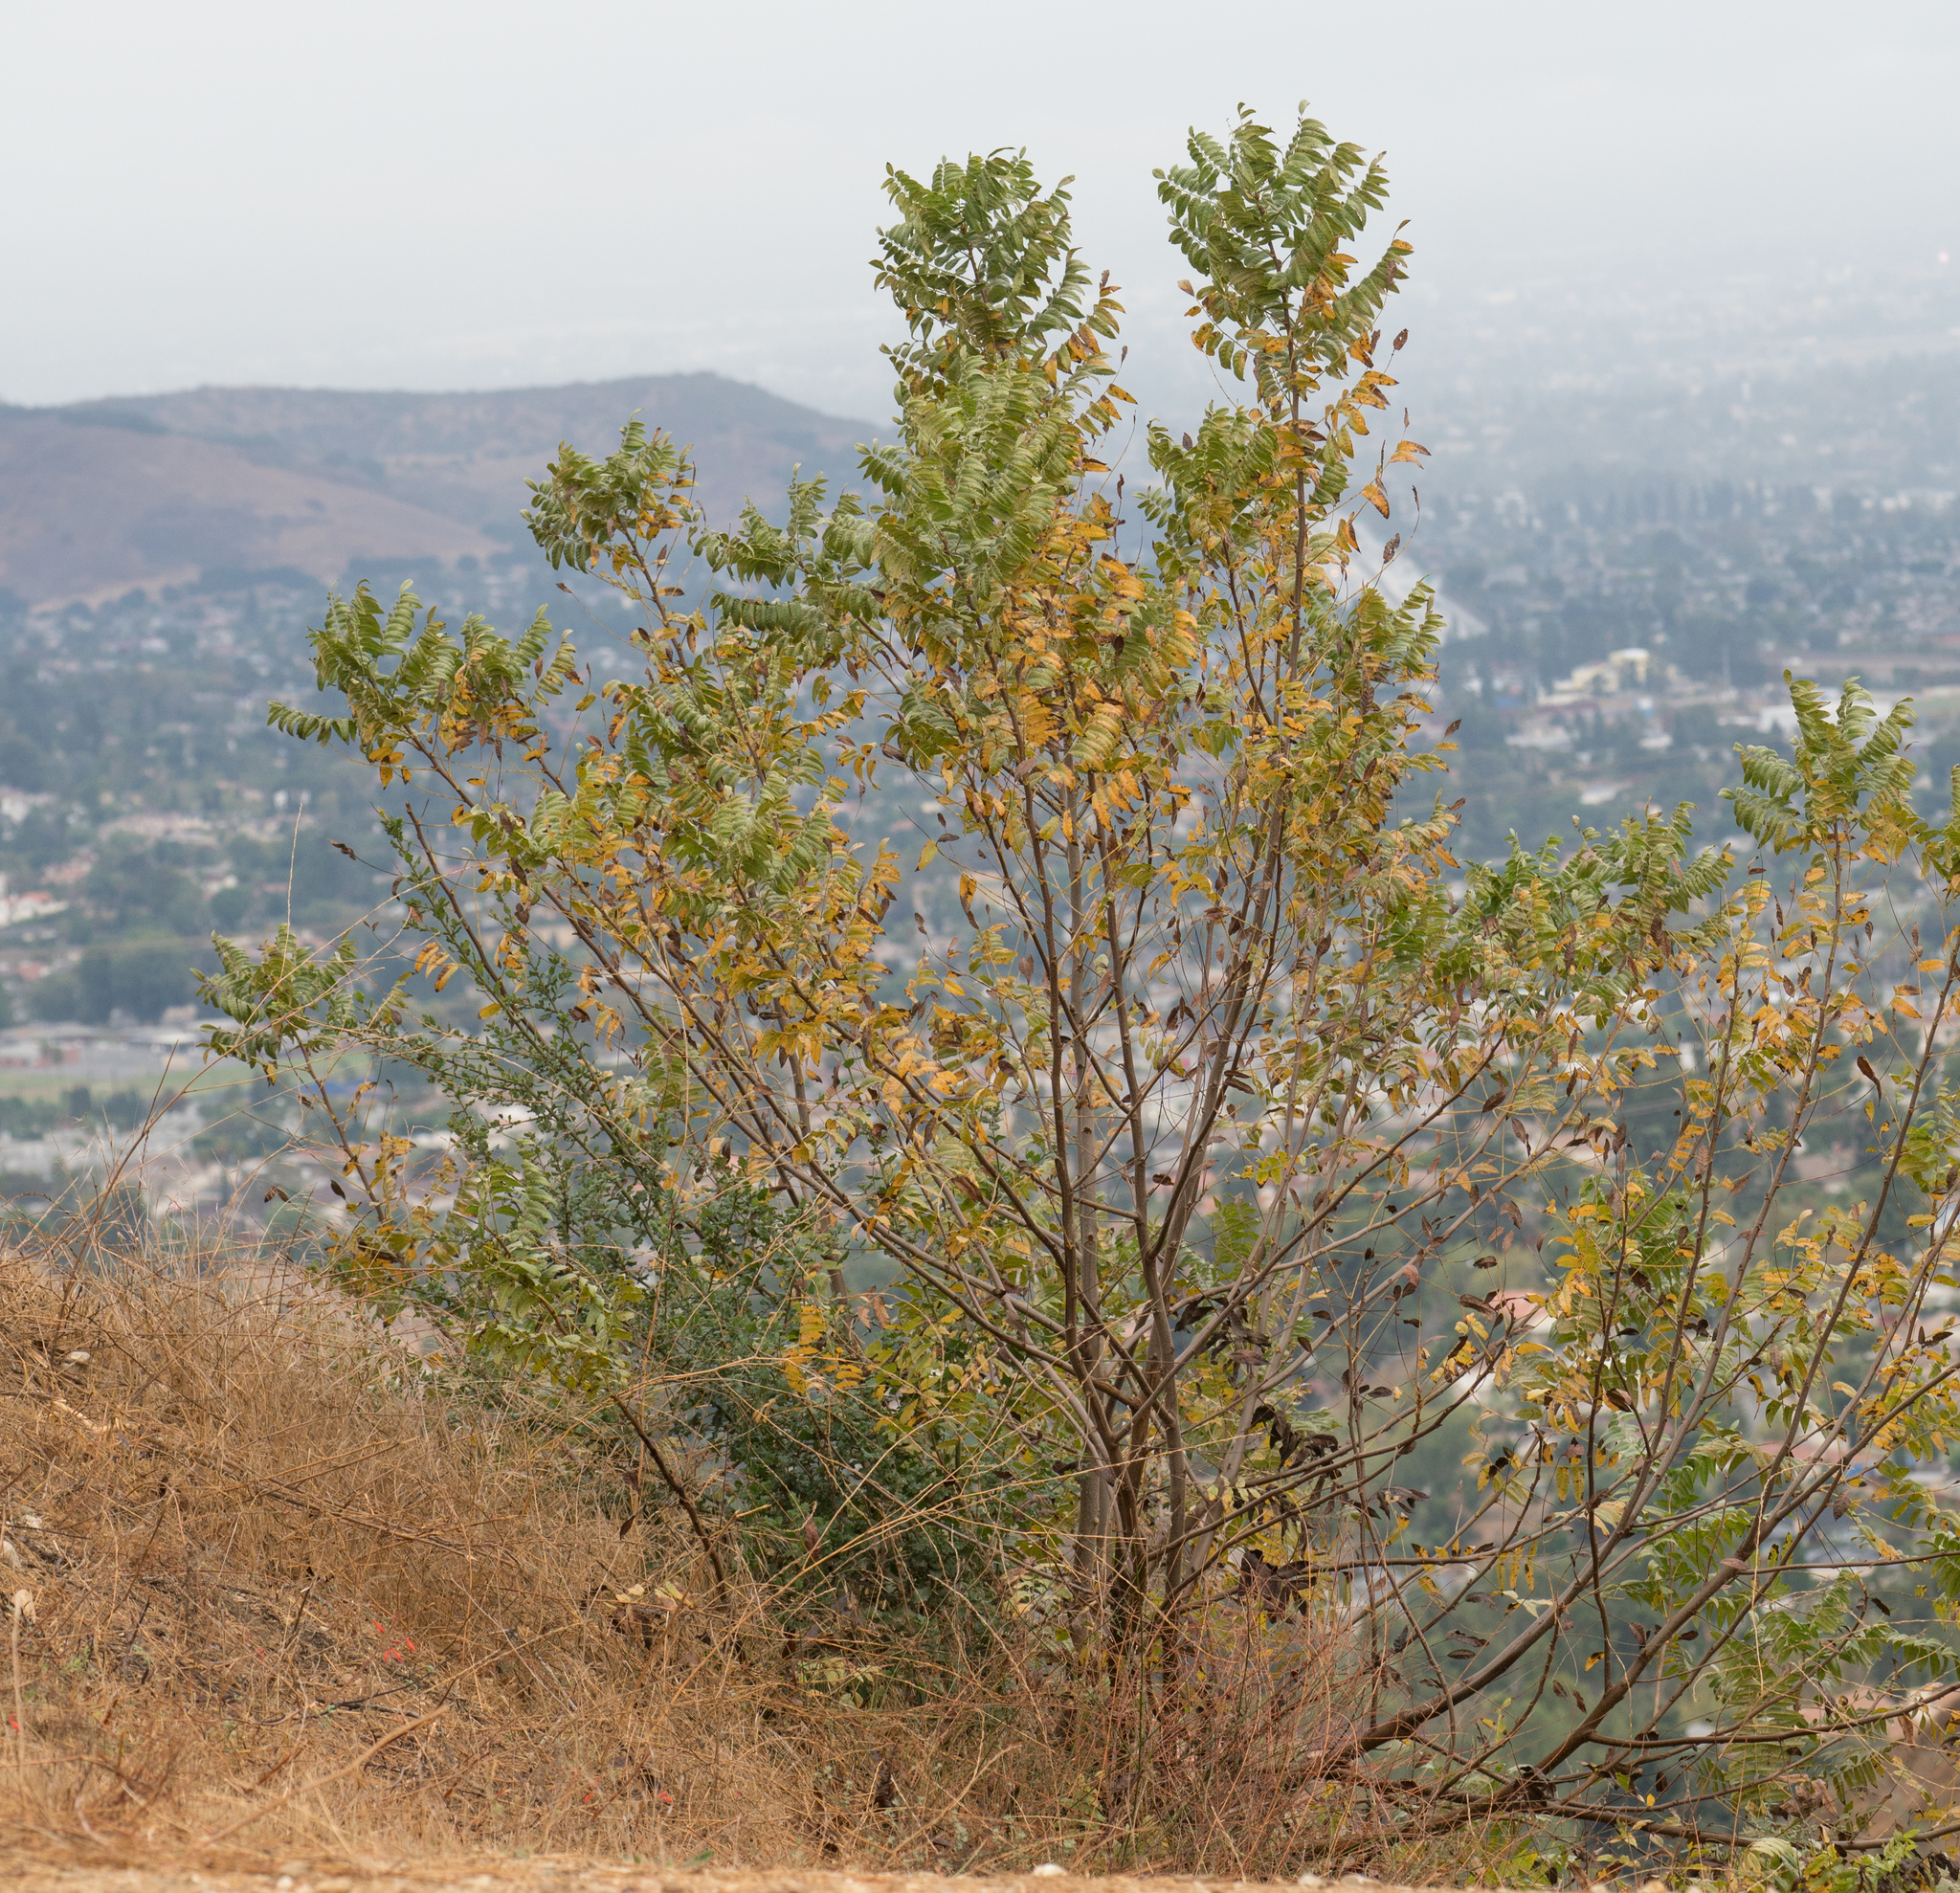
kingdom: Plantae
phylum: Tracheophyta
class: Magnoliopsida
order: Fagales
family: Juglandaceae
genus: Juglans
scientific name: Juglans californica
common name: Southern california black walnut
